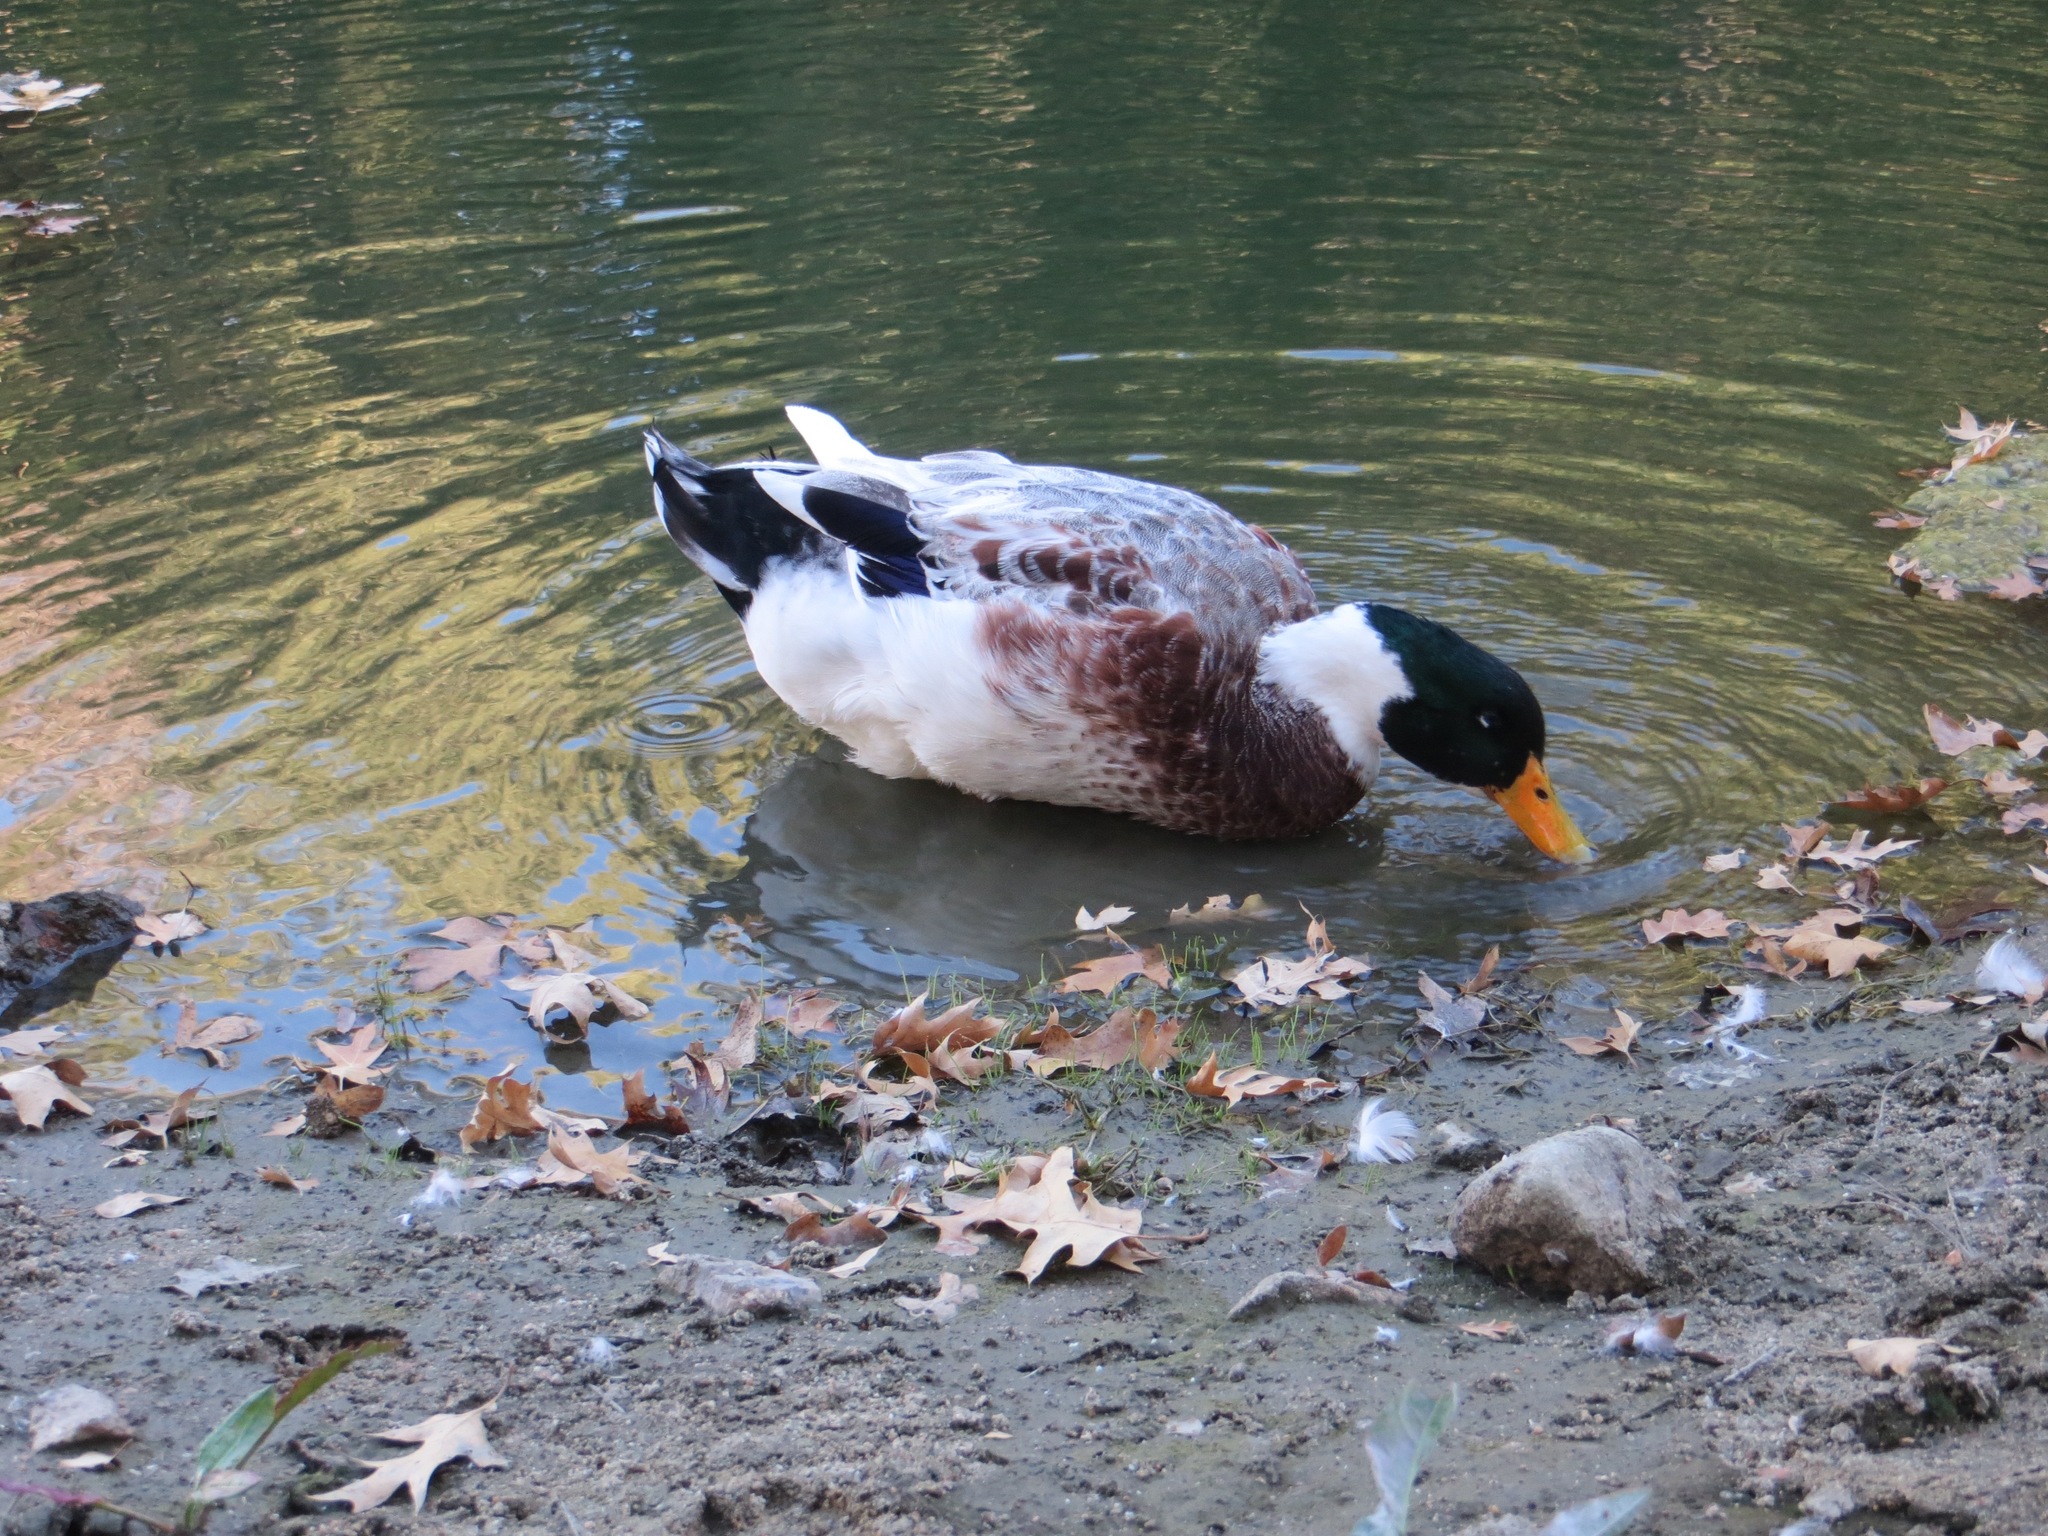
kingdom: Animalia
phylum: Chordata
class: Aves
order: Anseriformes
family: Anatidae
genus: Anas
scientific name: Anas platyrhynchos
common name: Mallard
